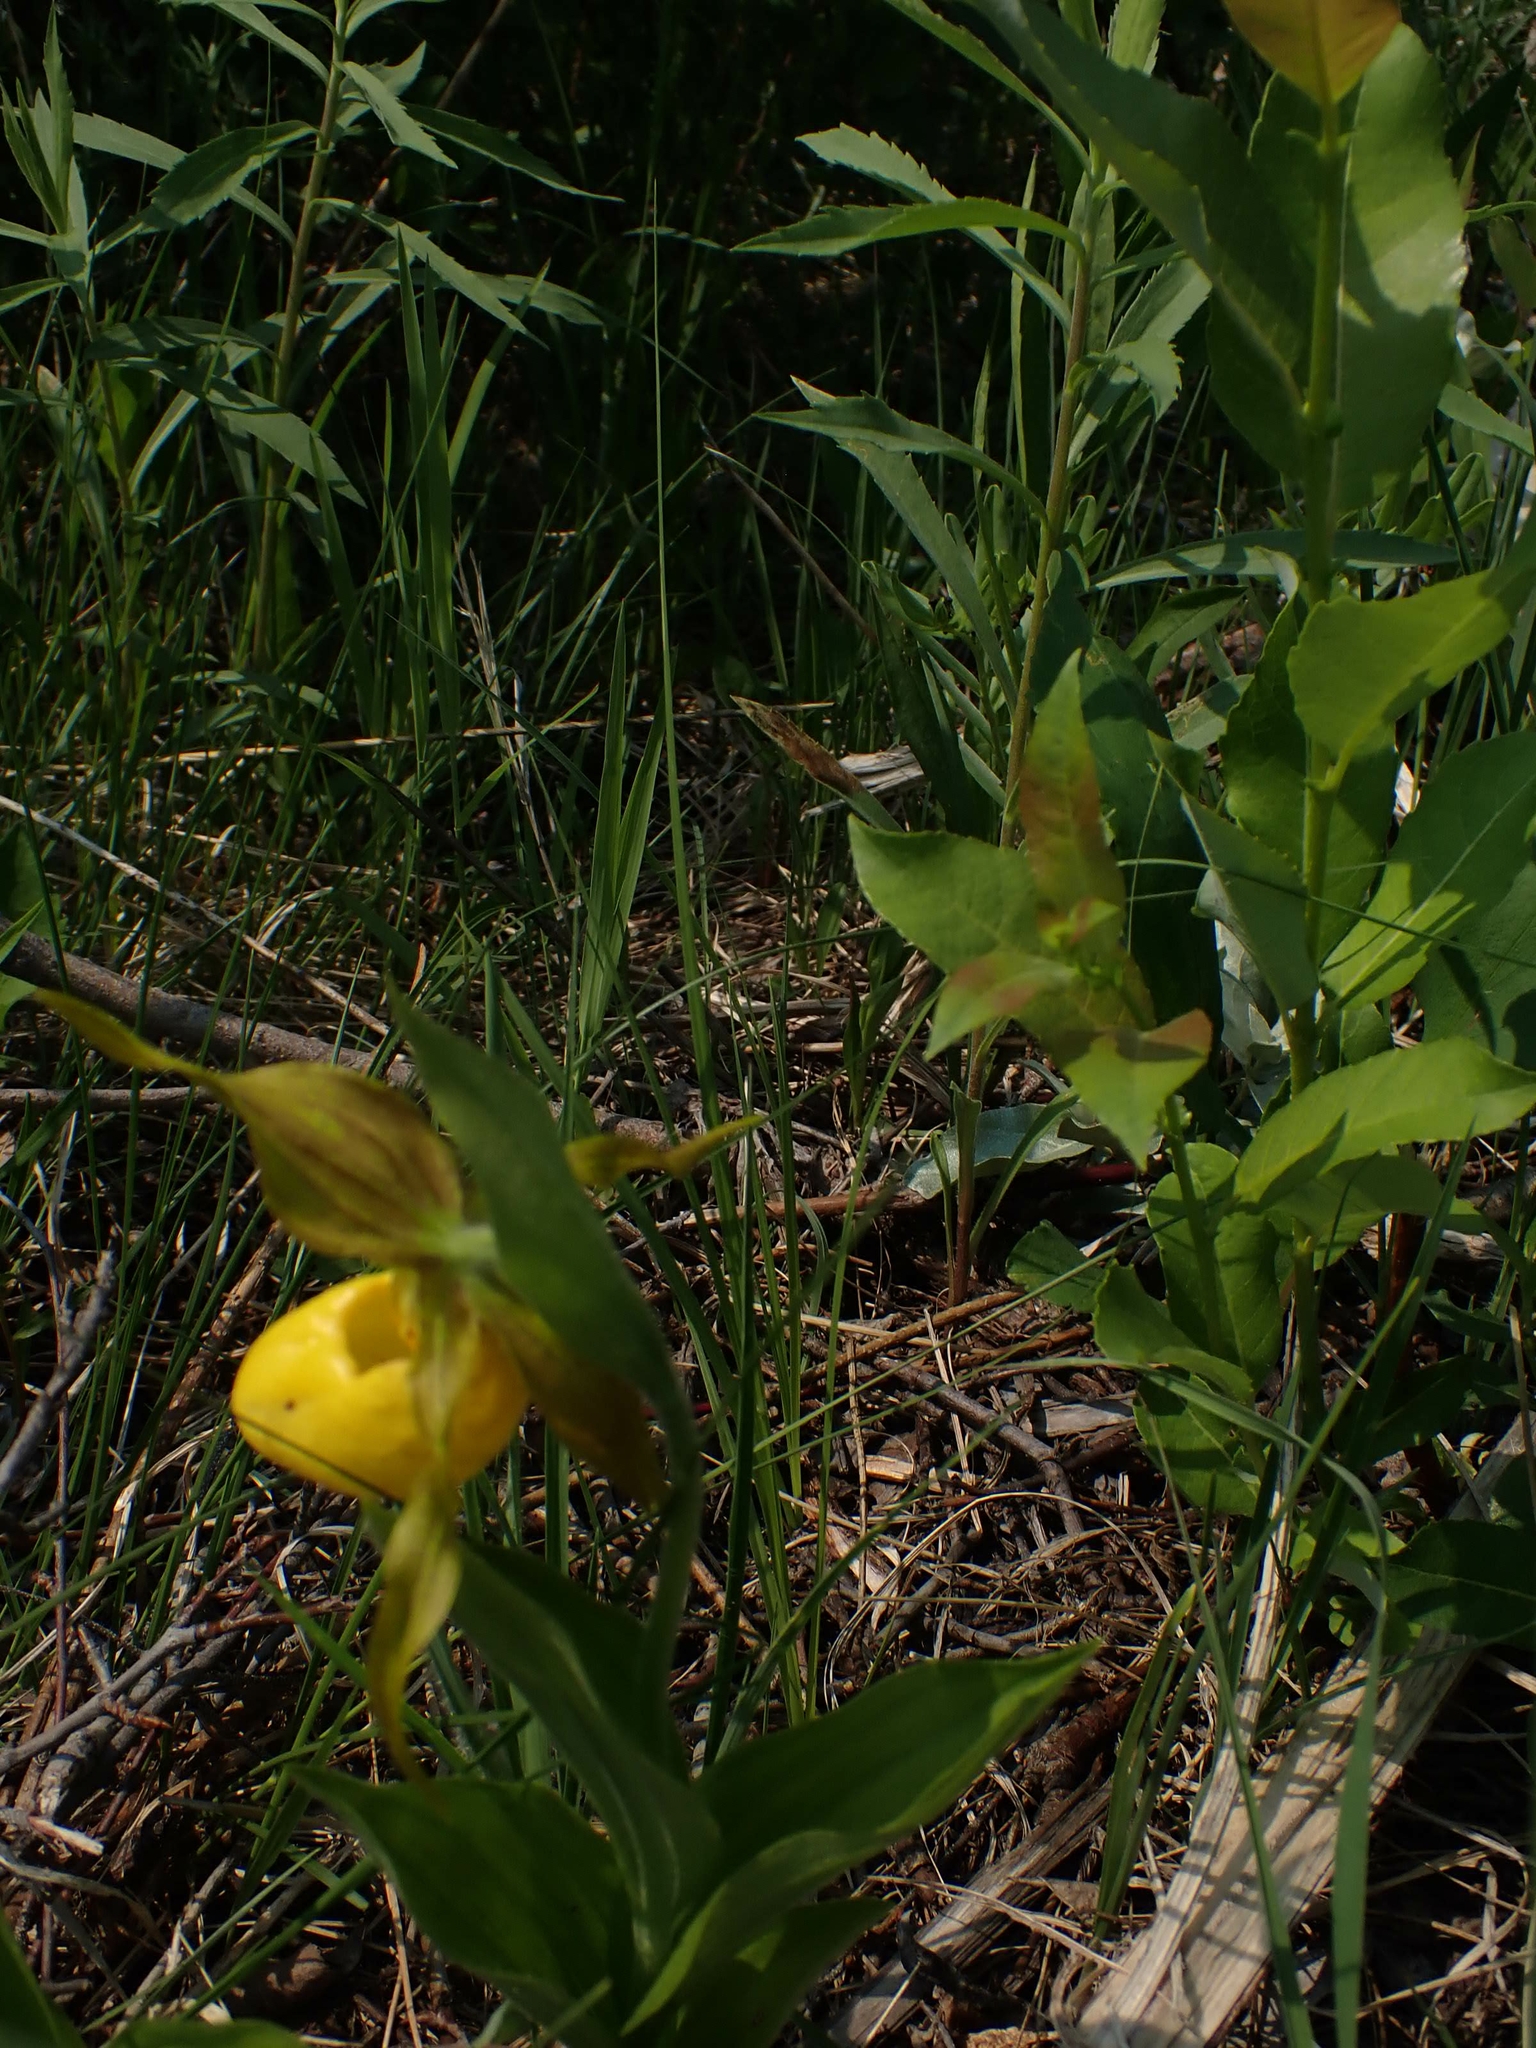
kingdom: Plantae
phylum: Tracheophyta
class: Liliopsida
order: Asparagales
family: Orchidaceae
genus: Cypripedium
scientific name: Cypripedium parviflorum
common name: American yellow lady's-slipper
